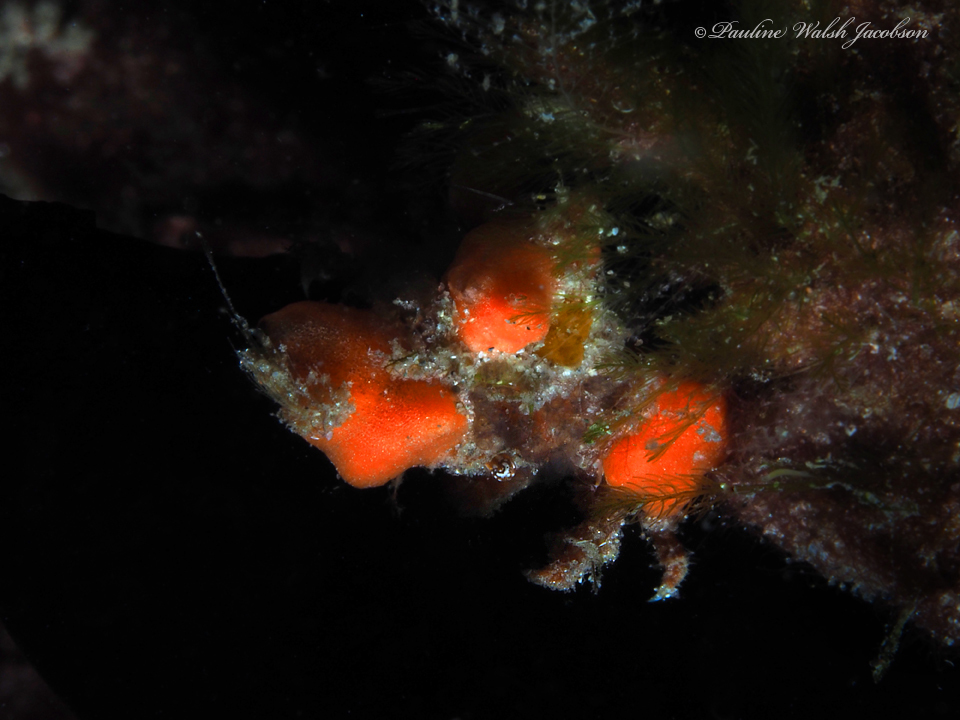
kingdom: Animalia
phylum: Arthropoda
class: Malacostraca
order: Decapoda
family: Epialtidae
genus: Macrocoeloma
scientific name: Macrocoeloma trispinosum
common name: Grass crab
